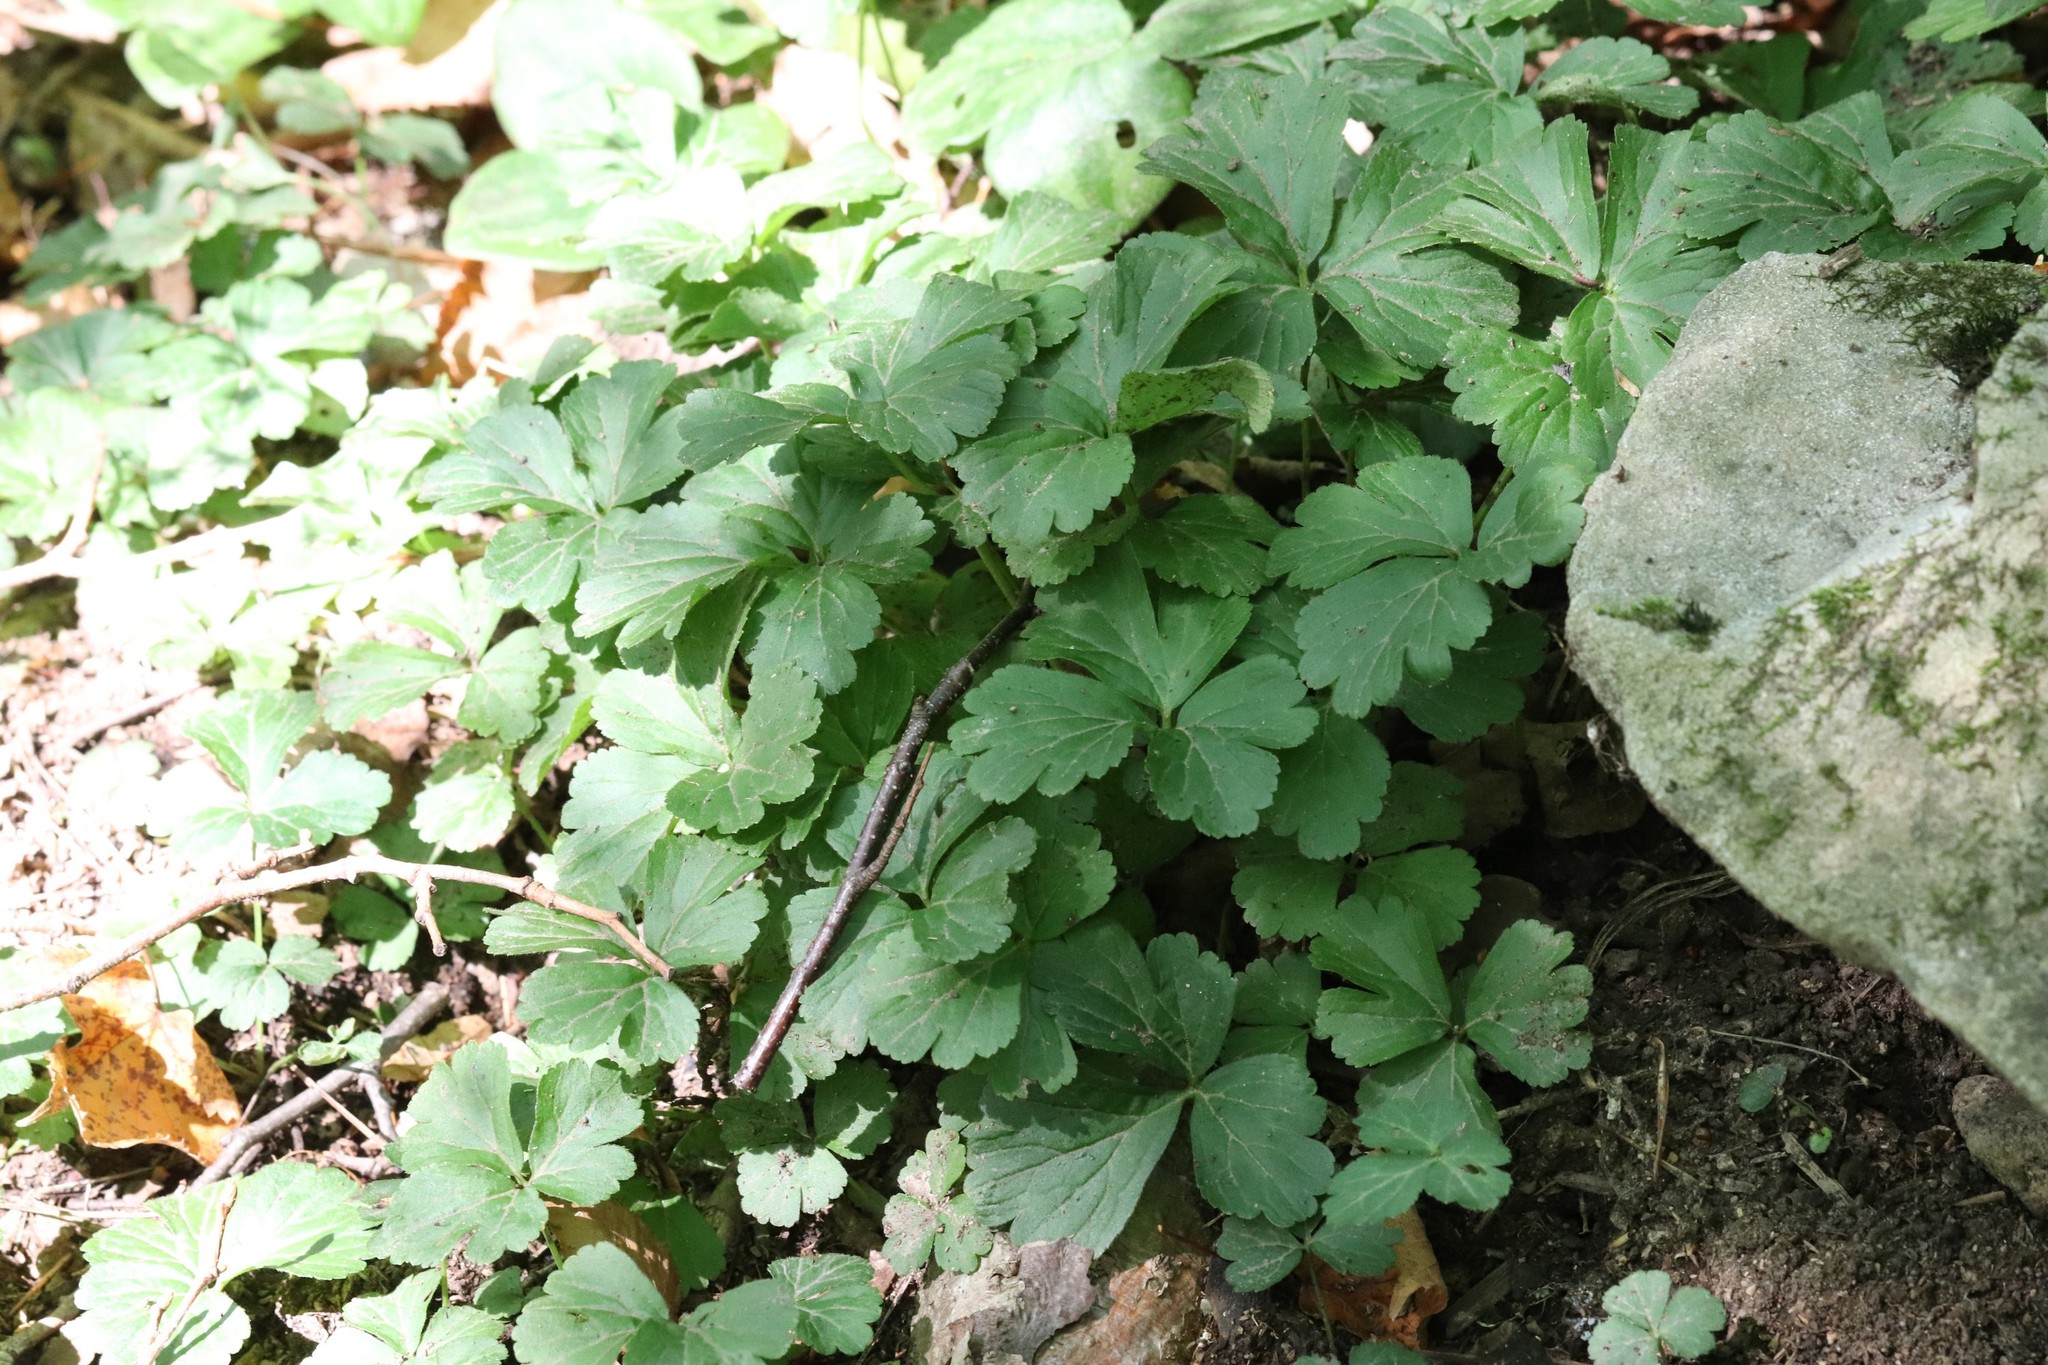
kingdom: Plantae
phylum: Tracheophyta
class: Magnoliopsida
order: Rosales
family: Rosaceae
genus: Geum
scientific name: Geum ternatum
